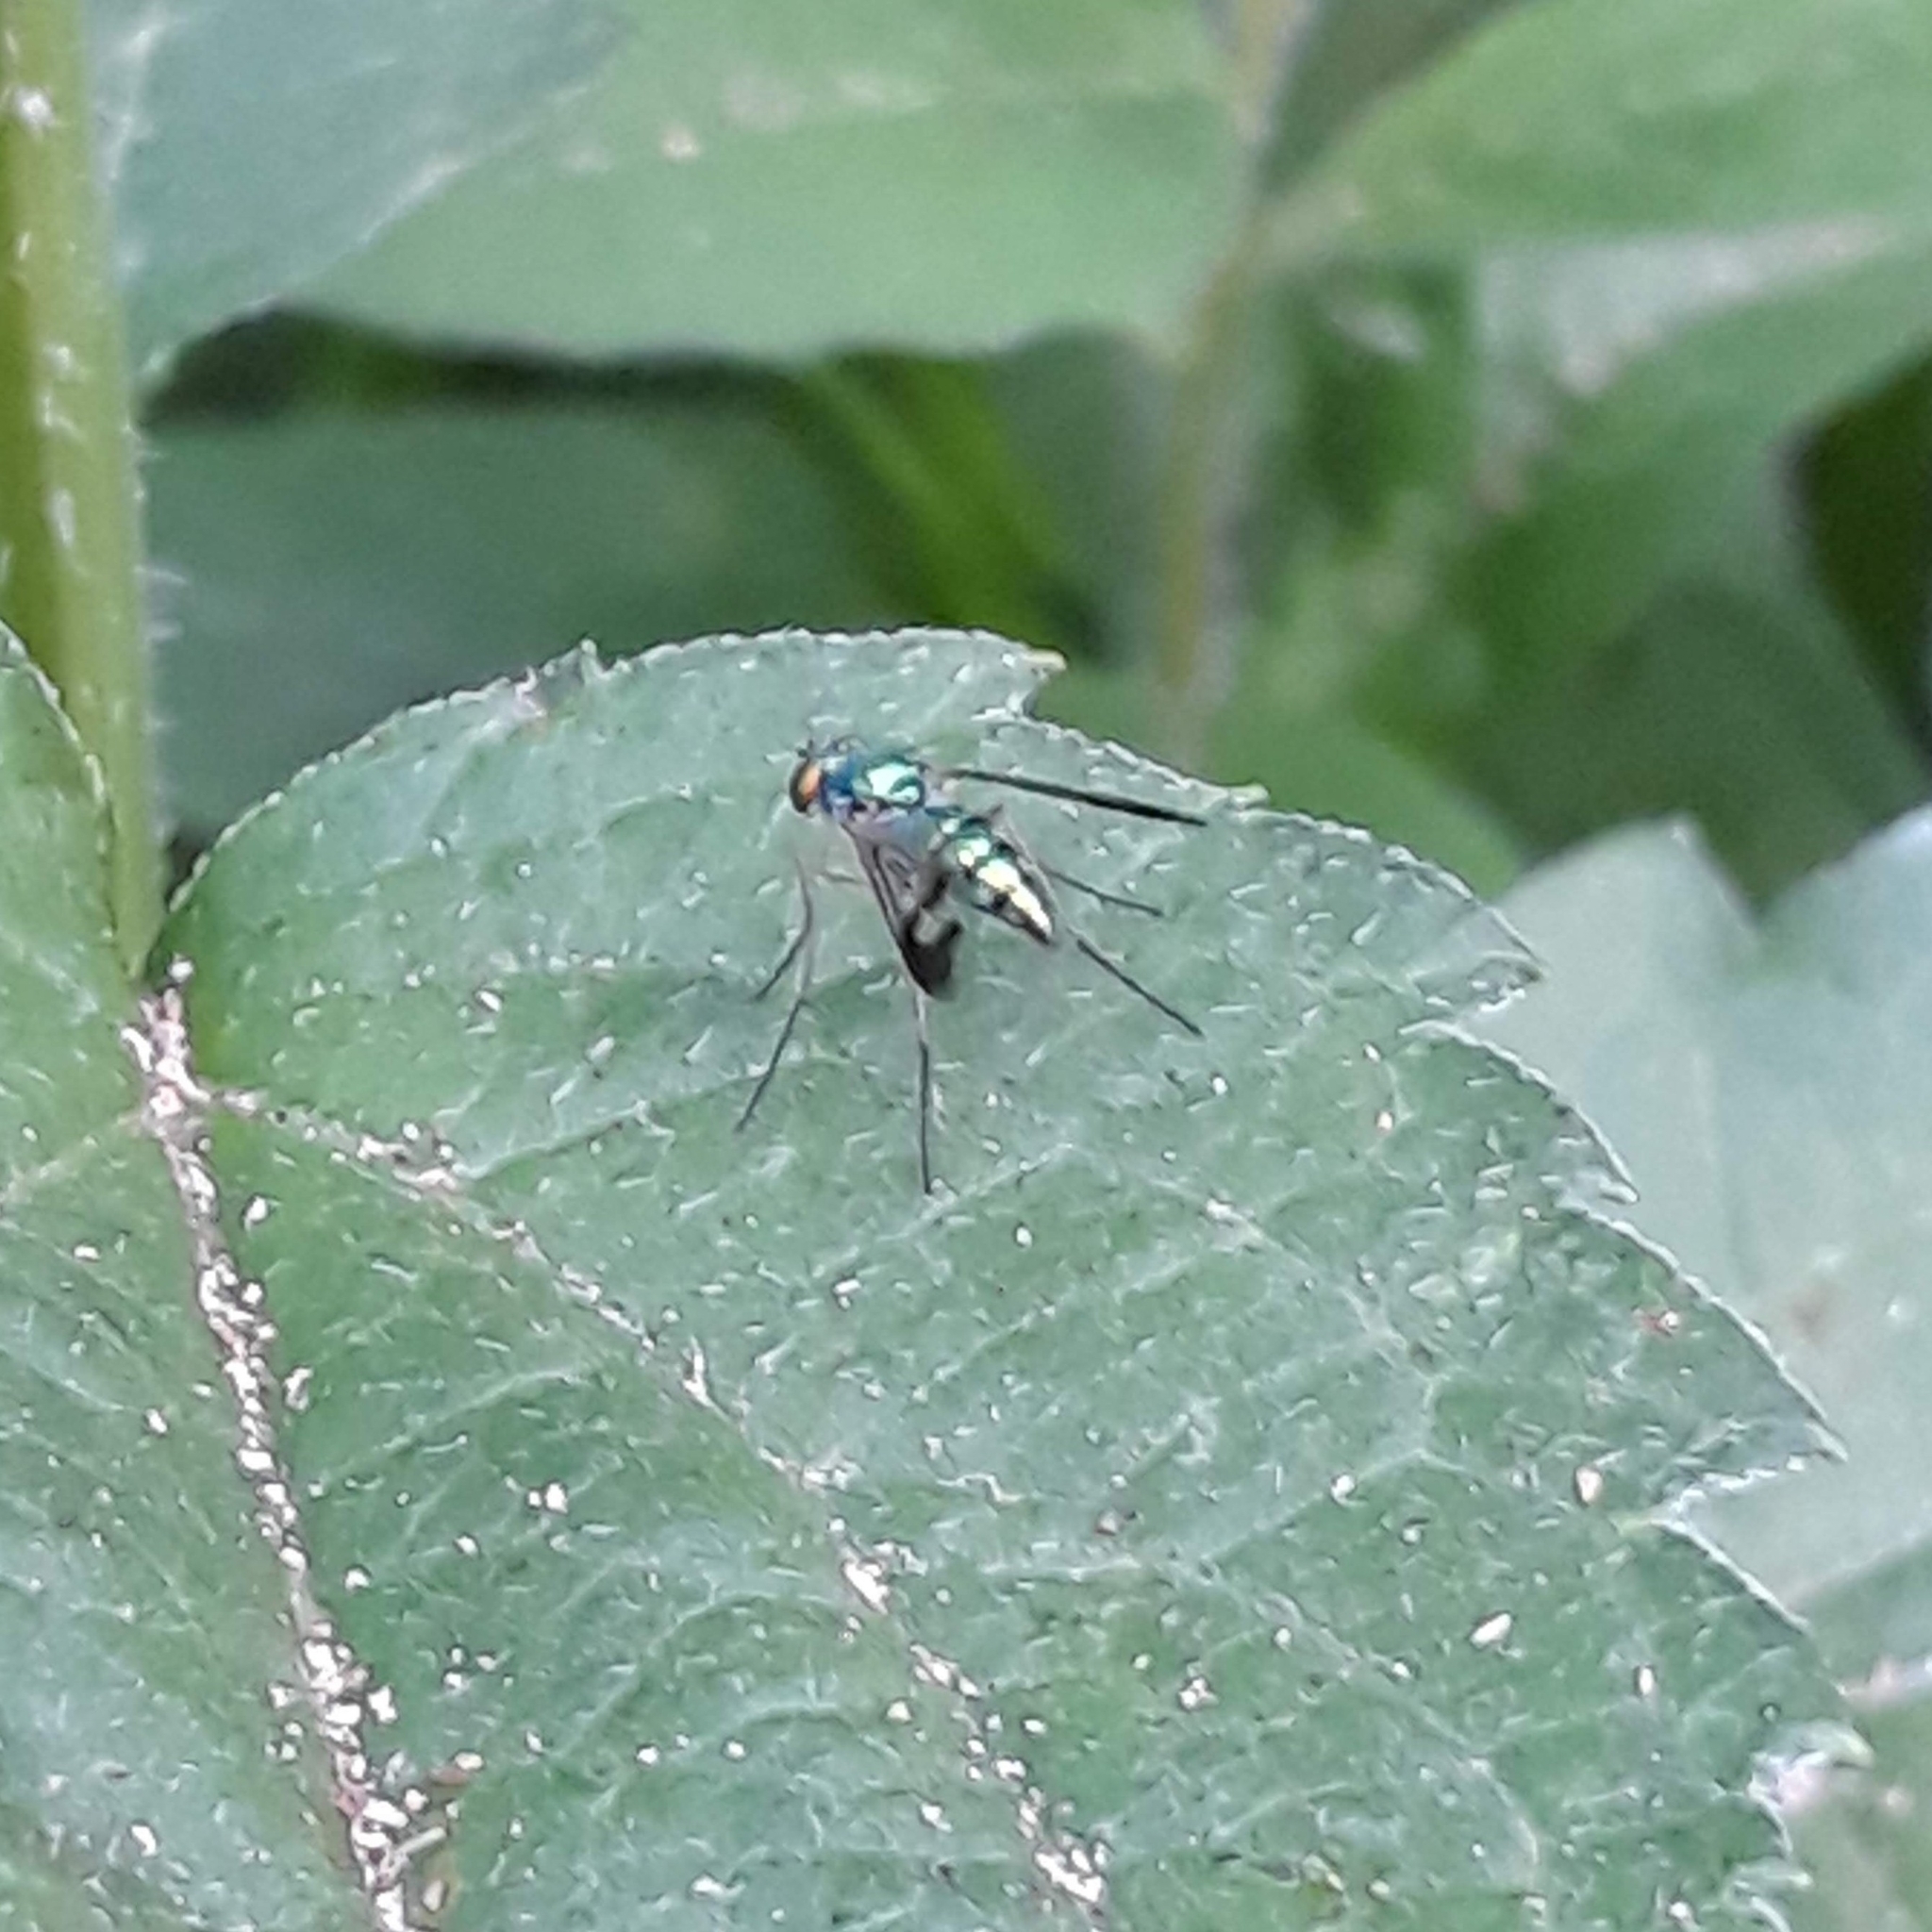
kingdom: Animalia
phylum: Arthropoda
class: Insecta
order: Diptera
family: Dolichopodidae
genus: Condylostylus
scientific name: Condylostylus
